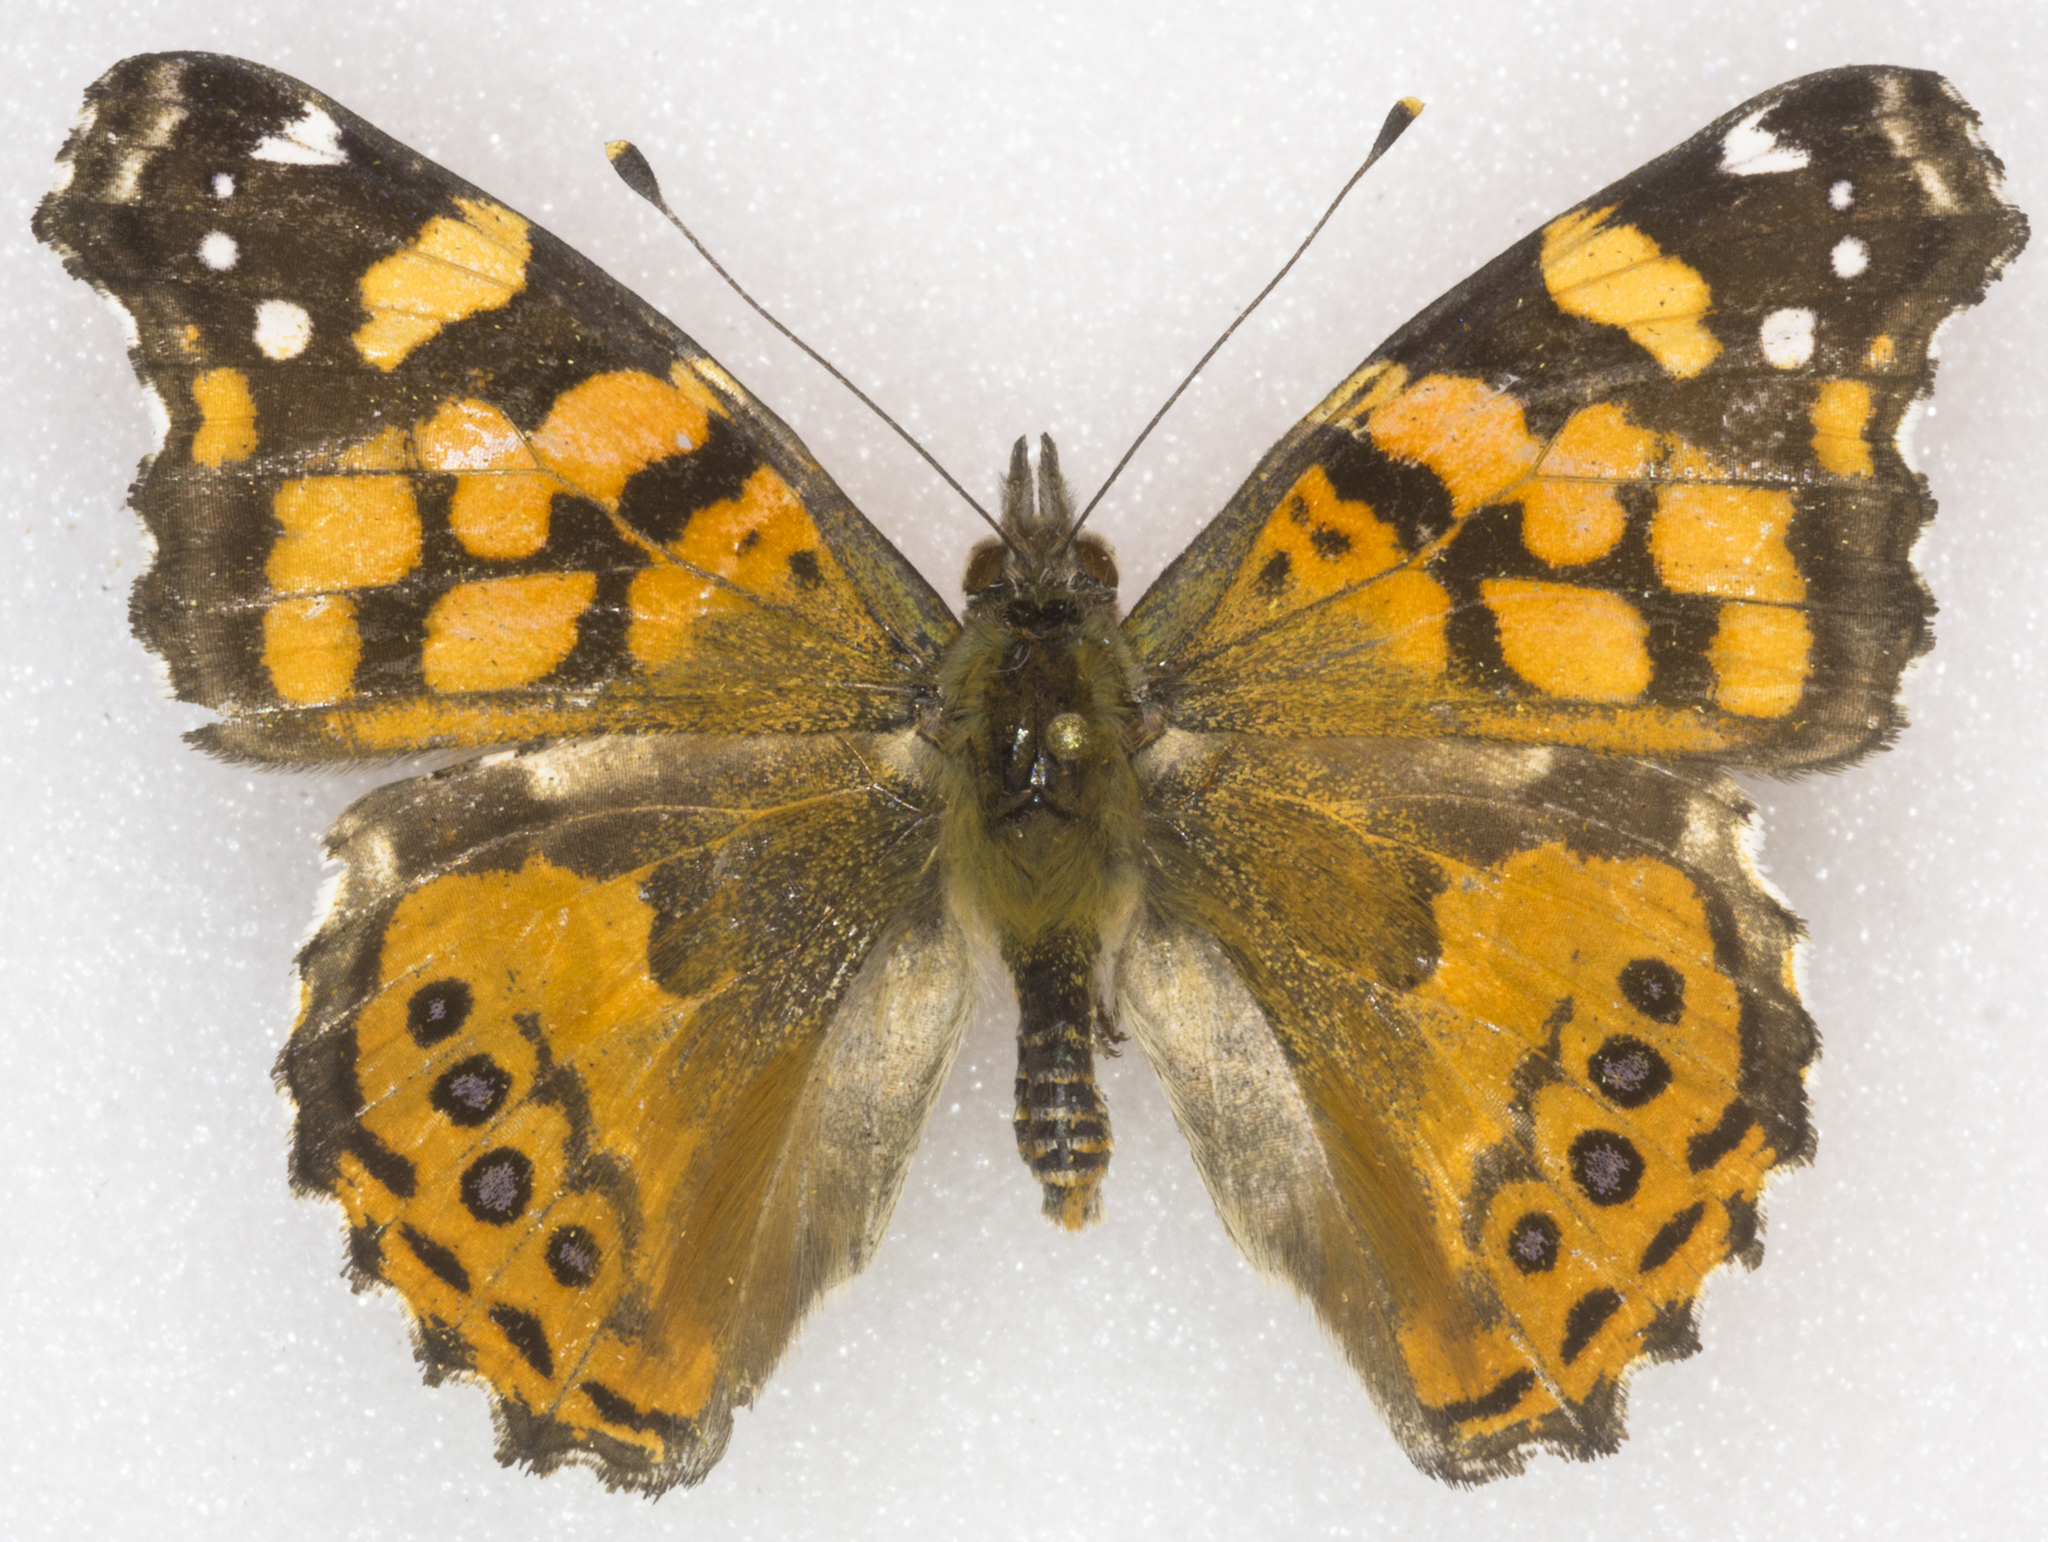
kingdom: Animalia
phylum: Arthropoda
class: Insecta
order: Lepidoptera
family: Nymphalidae
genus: Vanessa
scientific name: Vanessa annabella
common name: West coast lady
